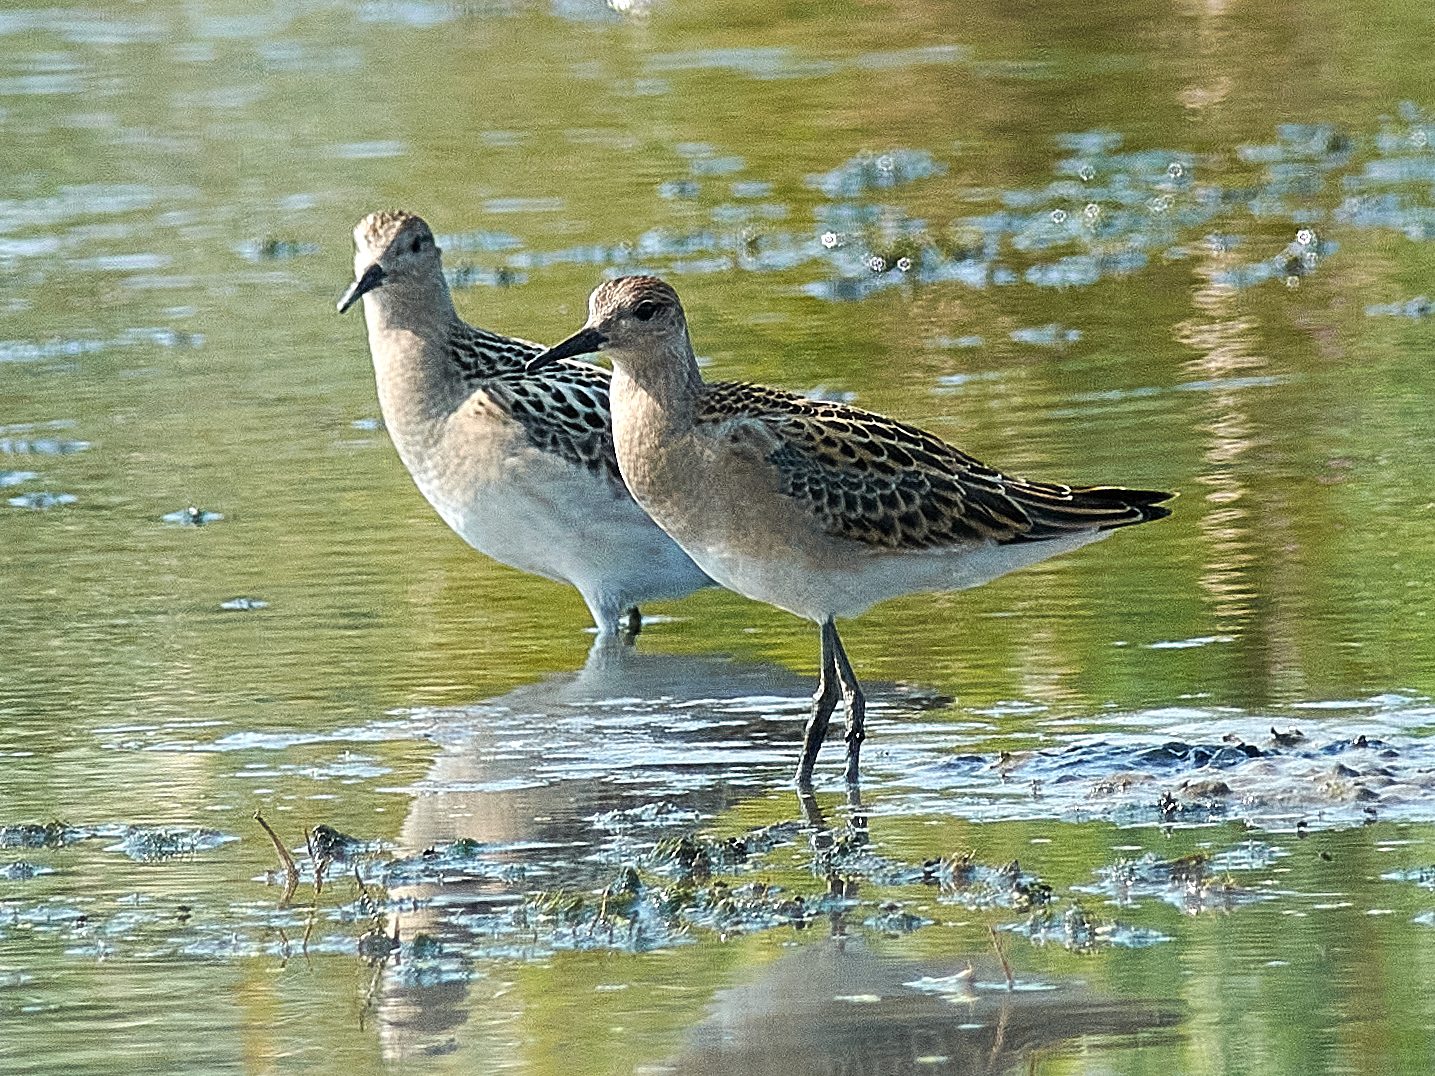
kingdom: Animalia
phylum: Chordata
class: Aves
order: Charadriiformes
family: Scolopacidae
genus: Calidris
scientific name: Calidris pugnax
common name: Ruff
